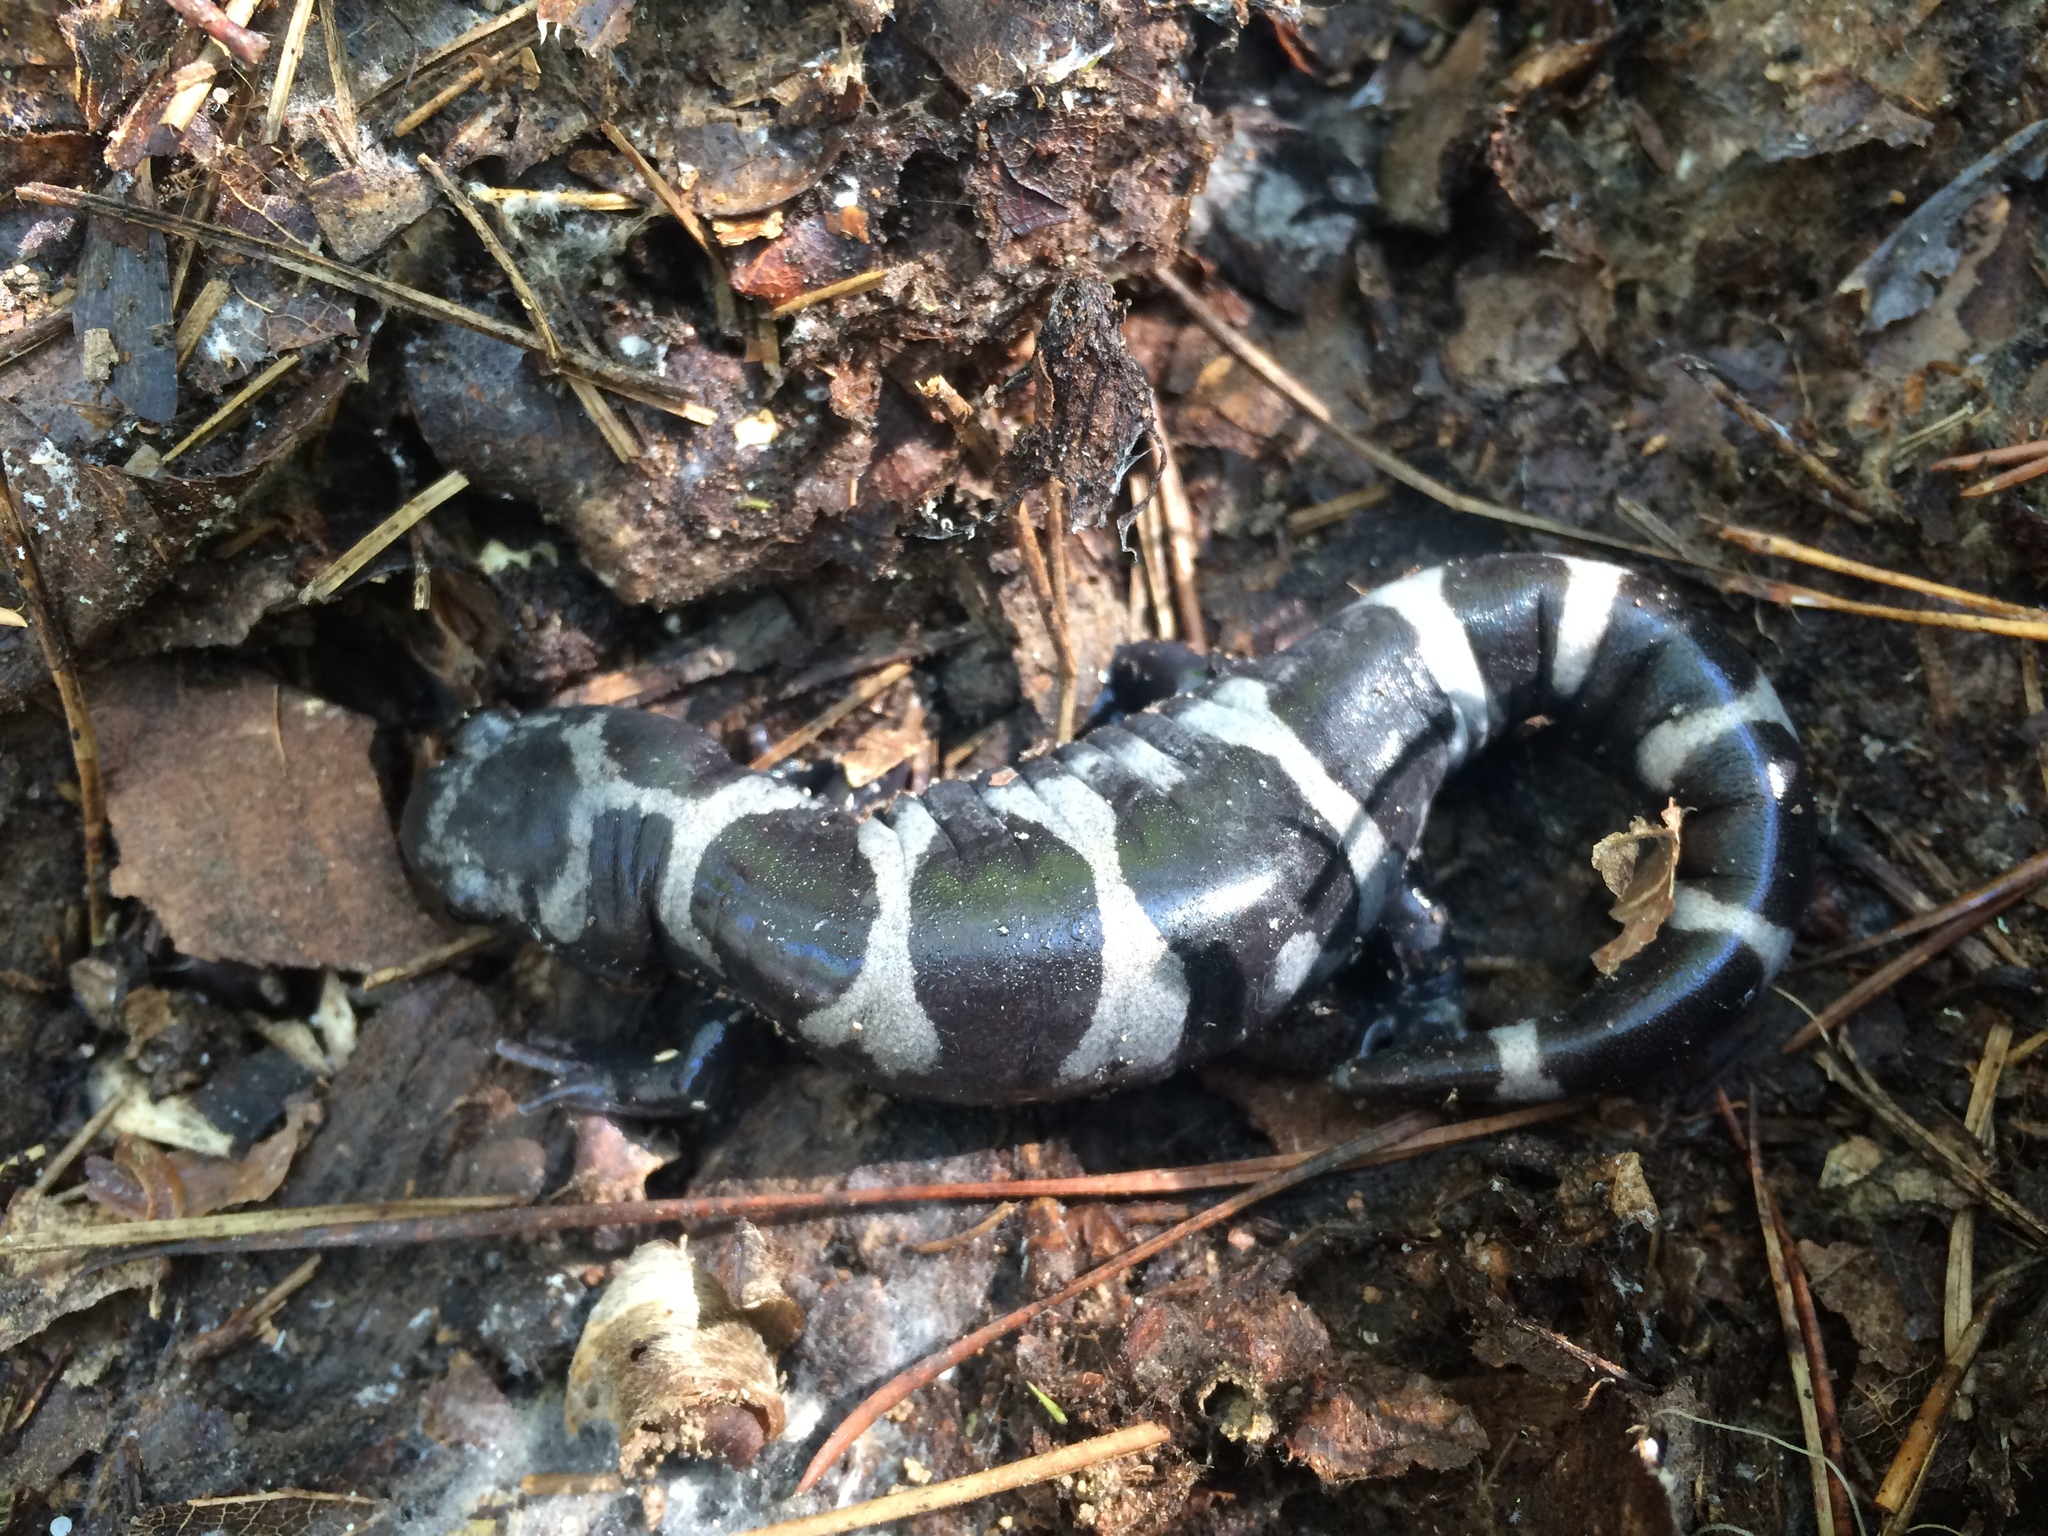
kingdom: Animalia
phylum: Chordata
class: Amphibia
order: Caudata
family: Ambystomatidae
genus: Ambystoma
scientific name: Ambystoma opacum
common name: Marbled salamander
